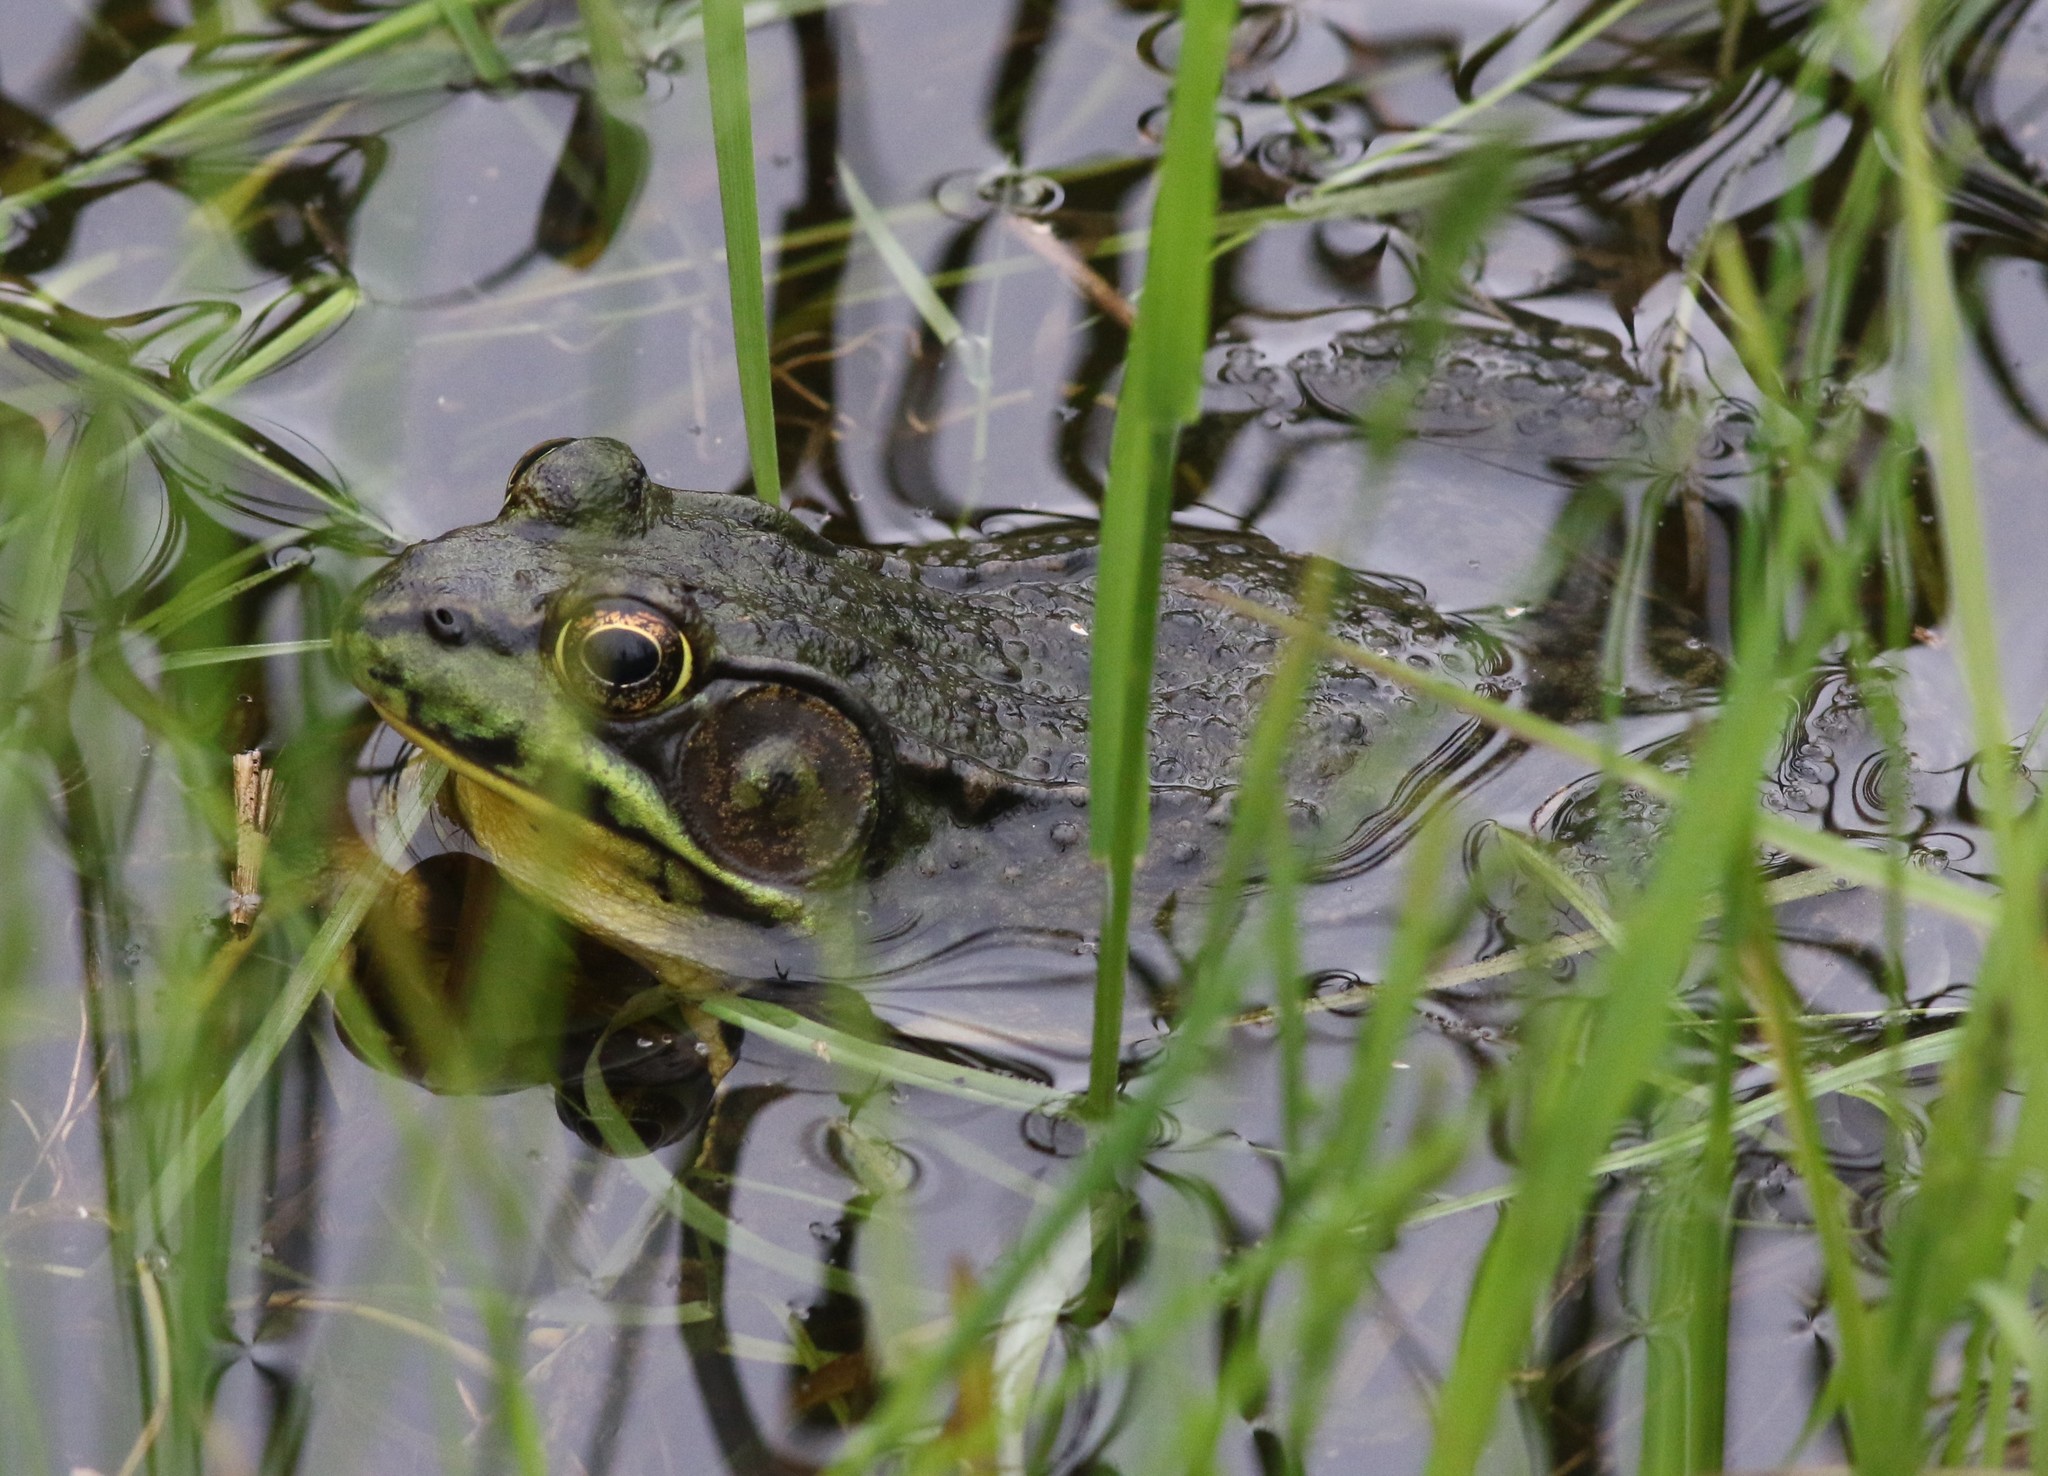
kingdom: Animalia
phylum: Chordata
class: Amphibia
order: Anura
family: Ranidae
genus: Lithobates
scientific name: Lithobates clamitans
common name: Green frog
